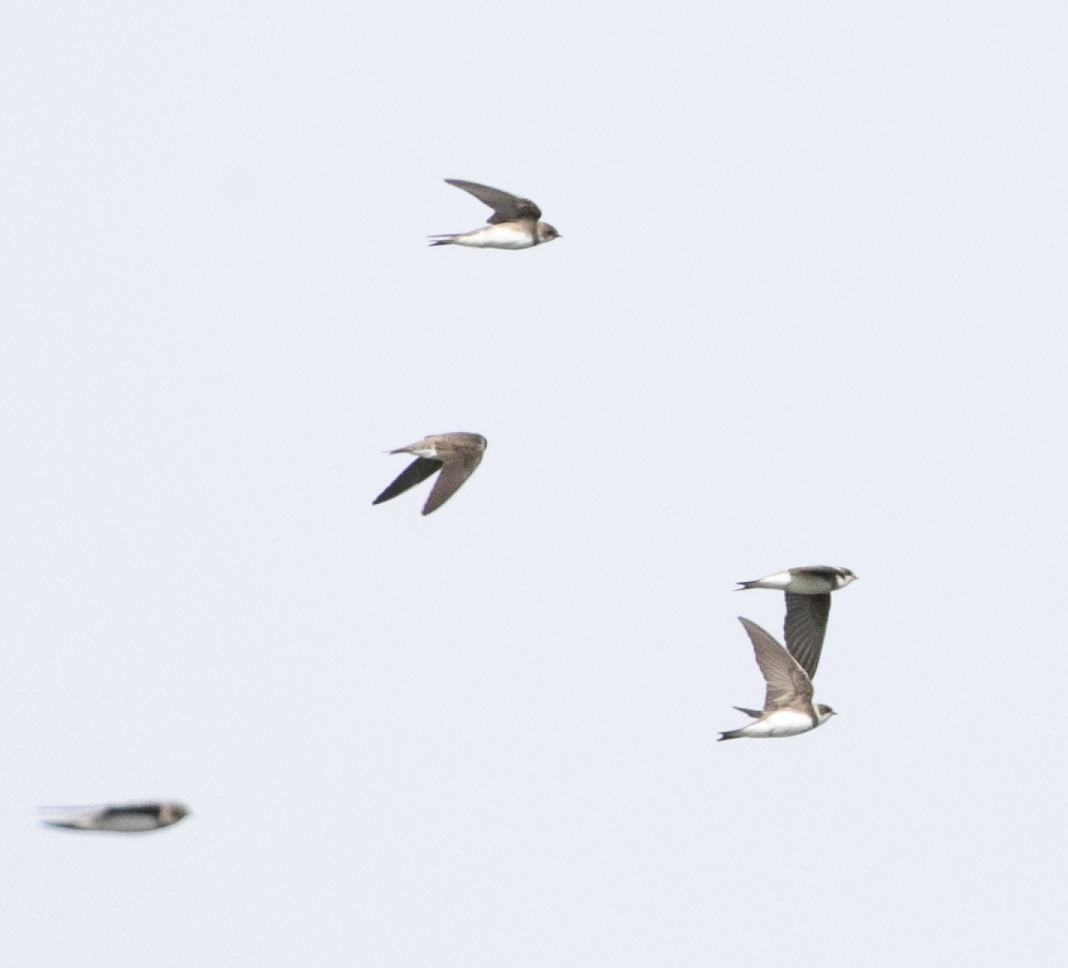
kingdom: Animalia
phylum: Chordata
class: Aves
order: Passeriformes
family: Hirundinidae
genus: Riparia
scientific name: Riparia riparia
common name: Sand martin
